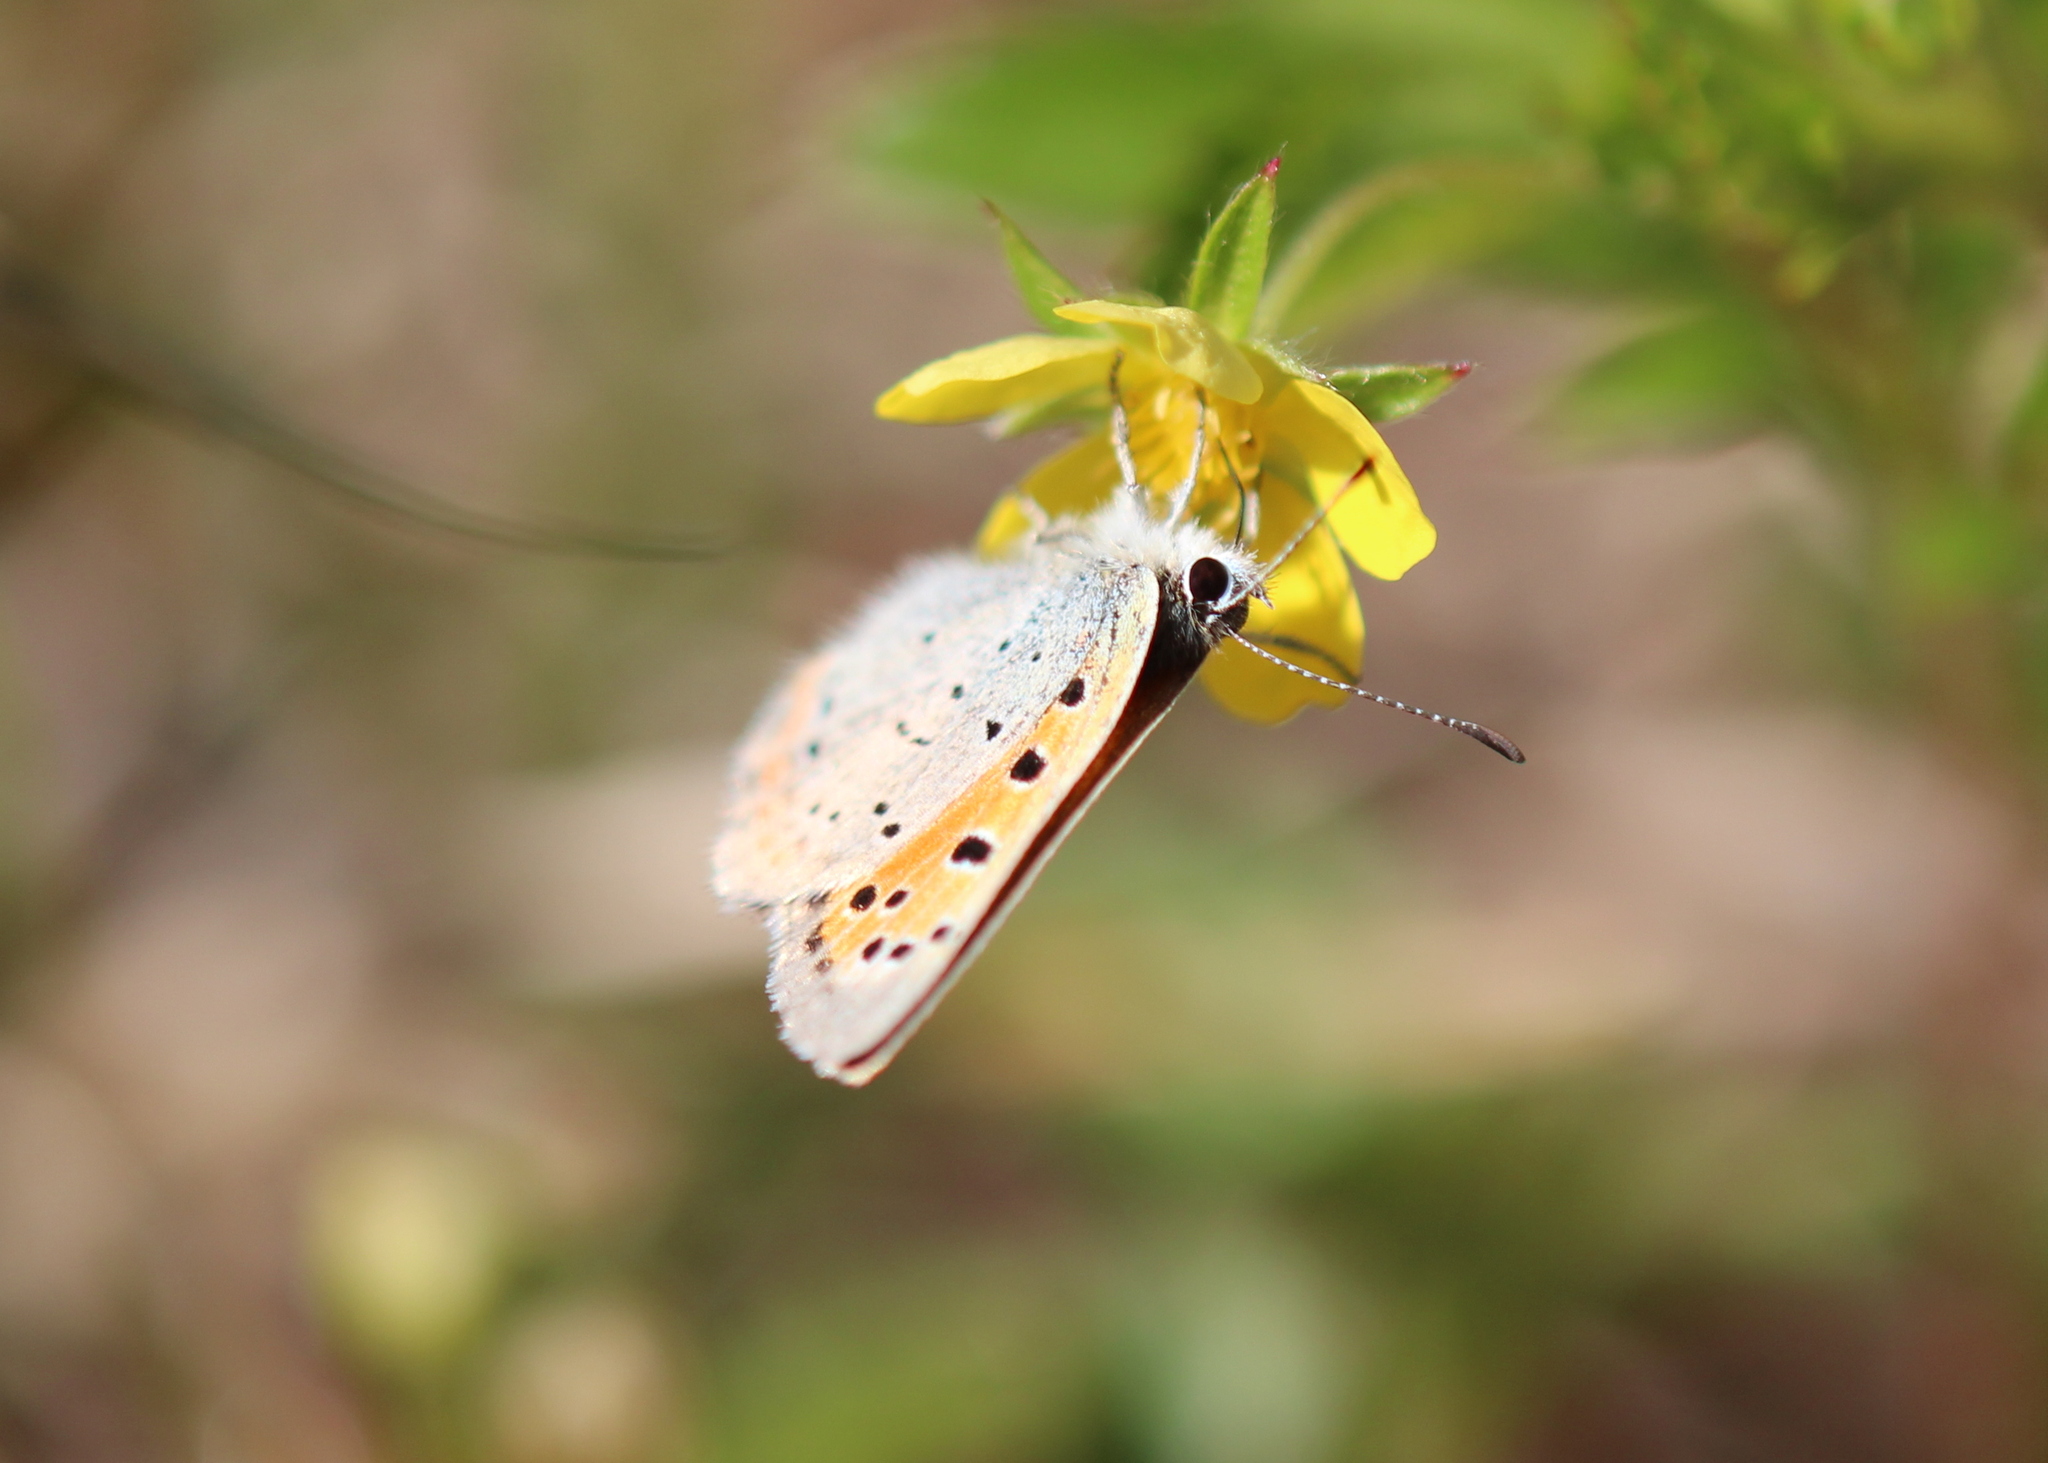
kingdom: Animalia
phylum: Arthropoda
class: Insecta
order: Lepidoptera
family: Lycaenidae
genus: Lycaena
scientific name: Lycaena hypophlaeas
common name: American copper
